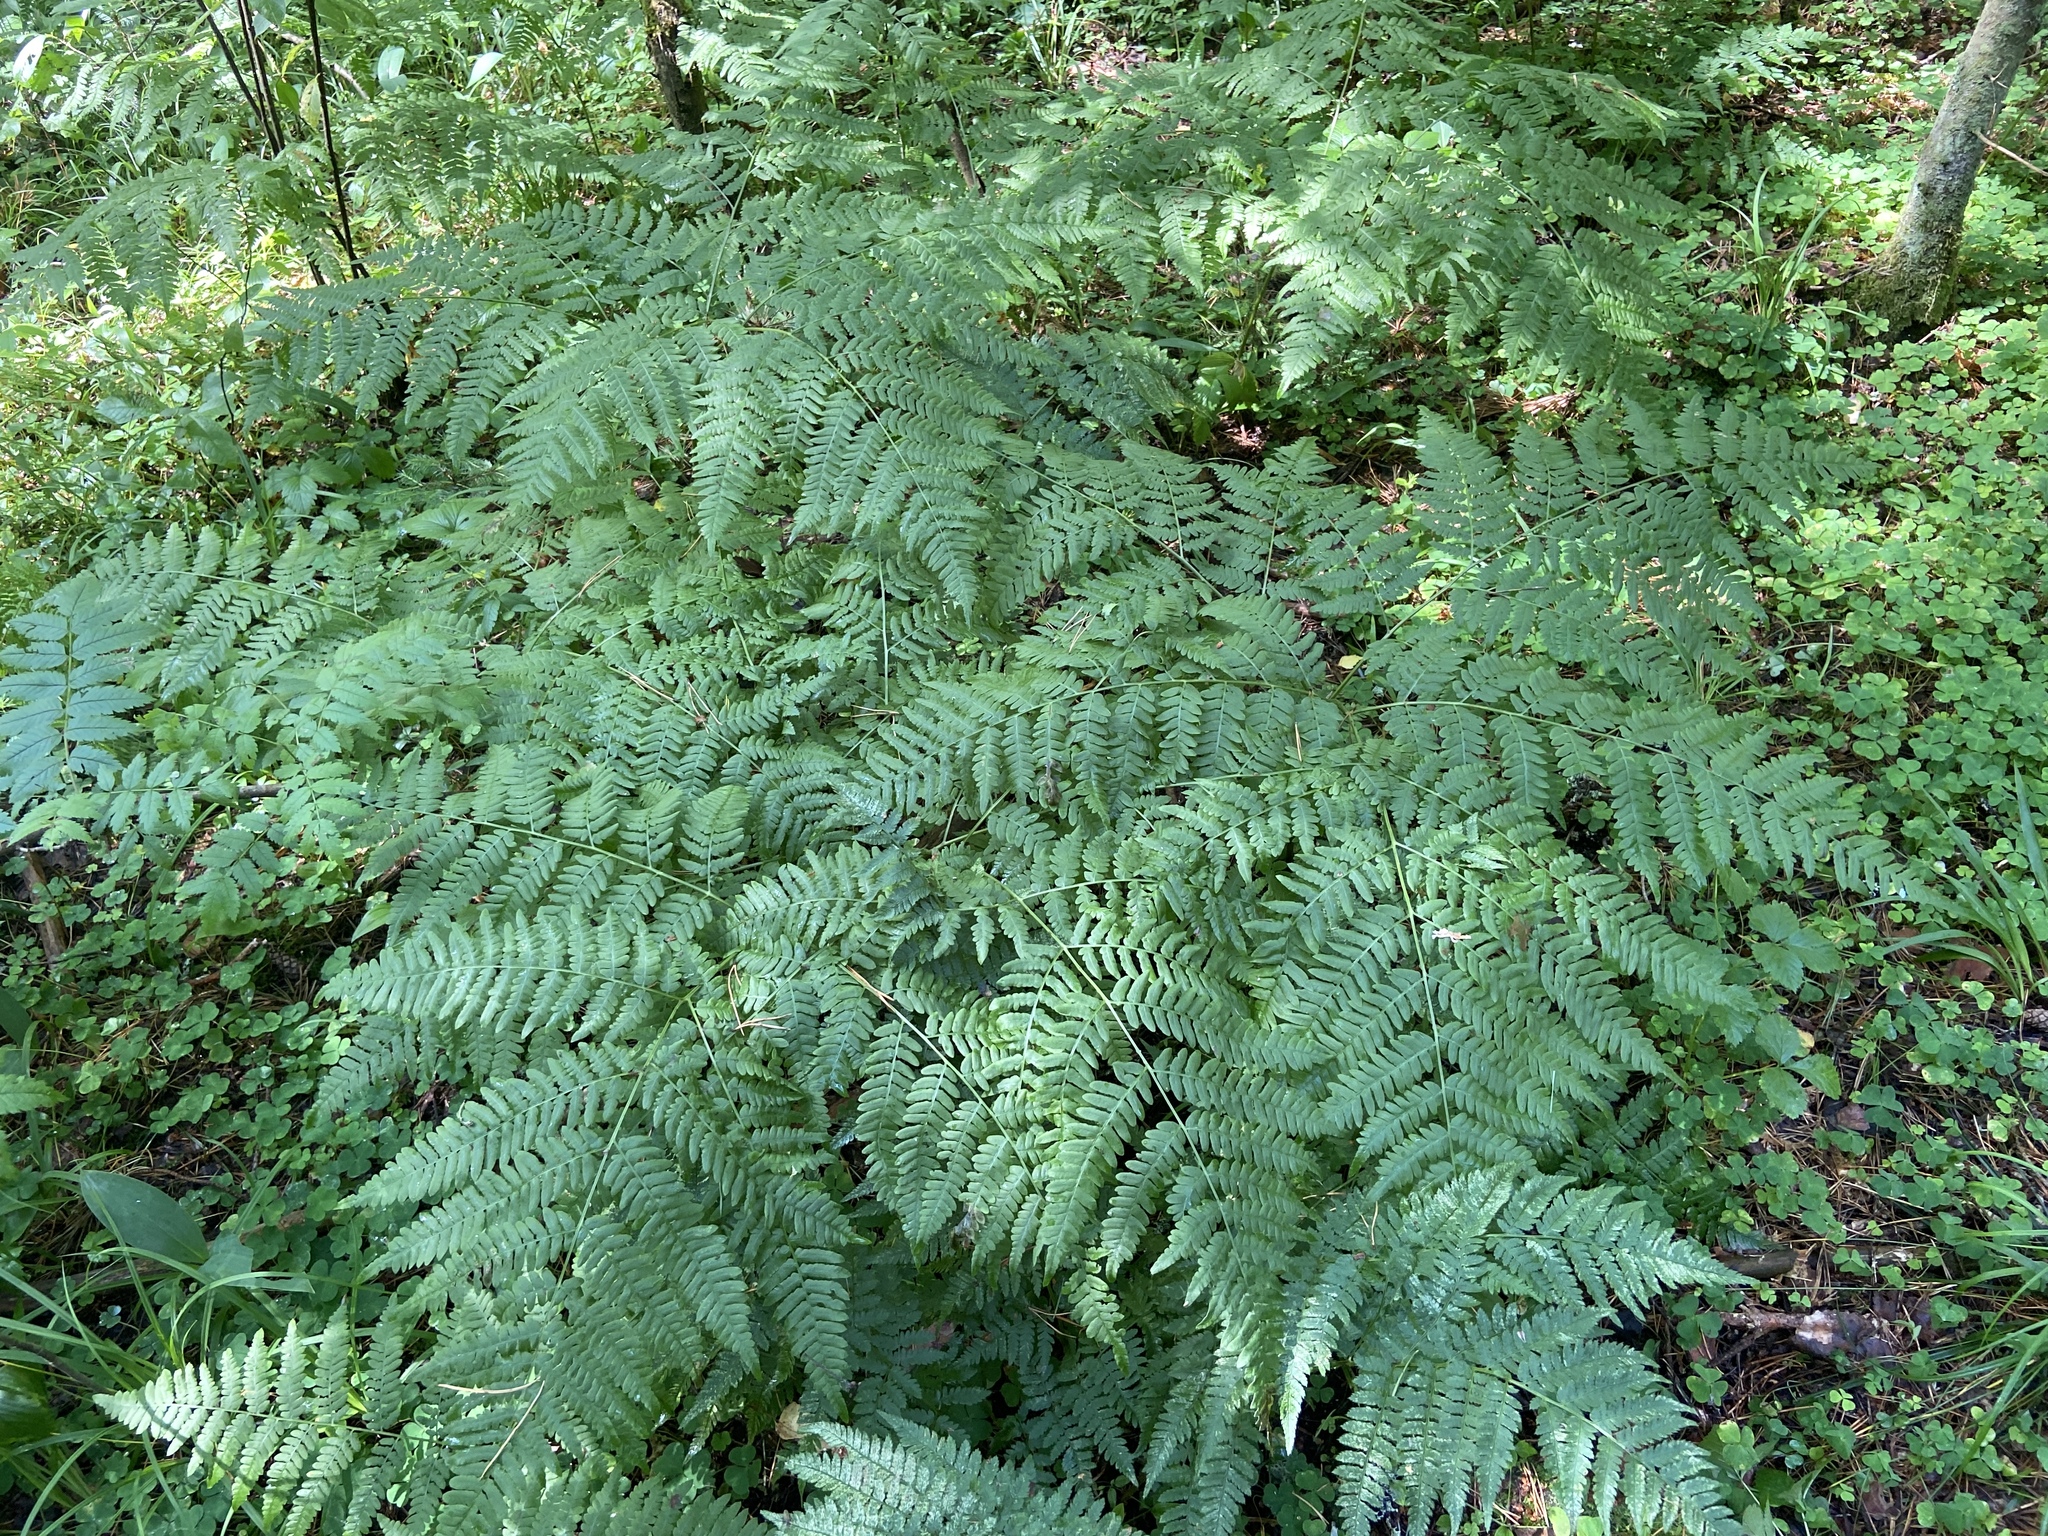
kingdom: Plantae
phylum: Tracheophyta
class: Polypodiopsida
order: Polypodiales
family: Dennstaedtiaceae
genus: Pteridium
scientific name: Pteridium aquilinum
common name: Bracken
